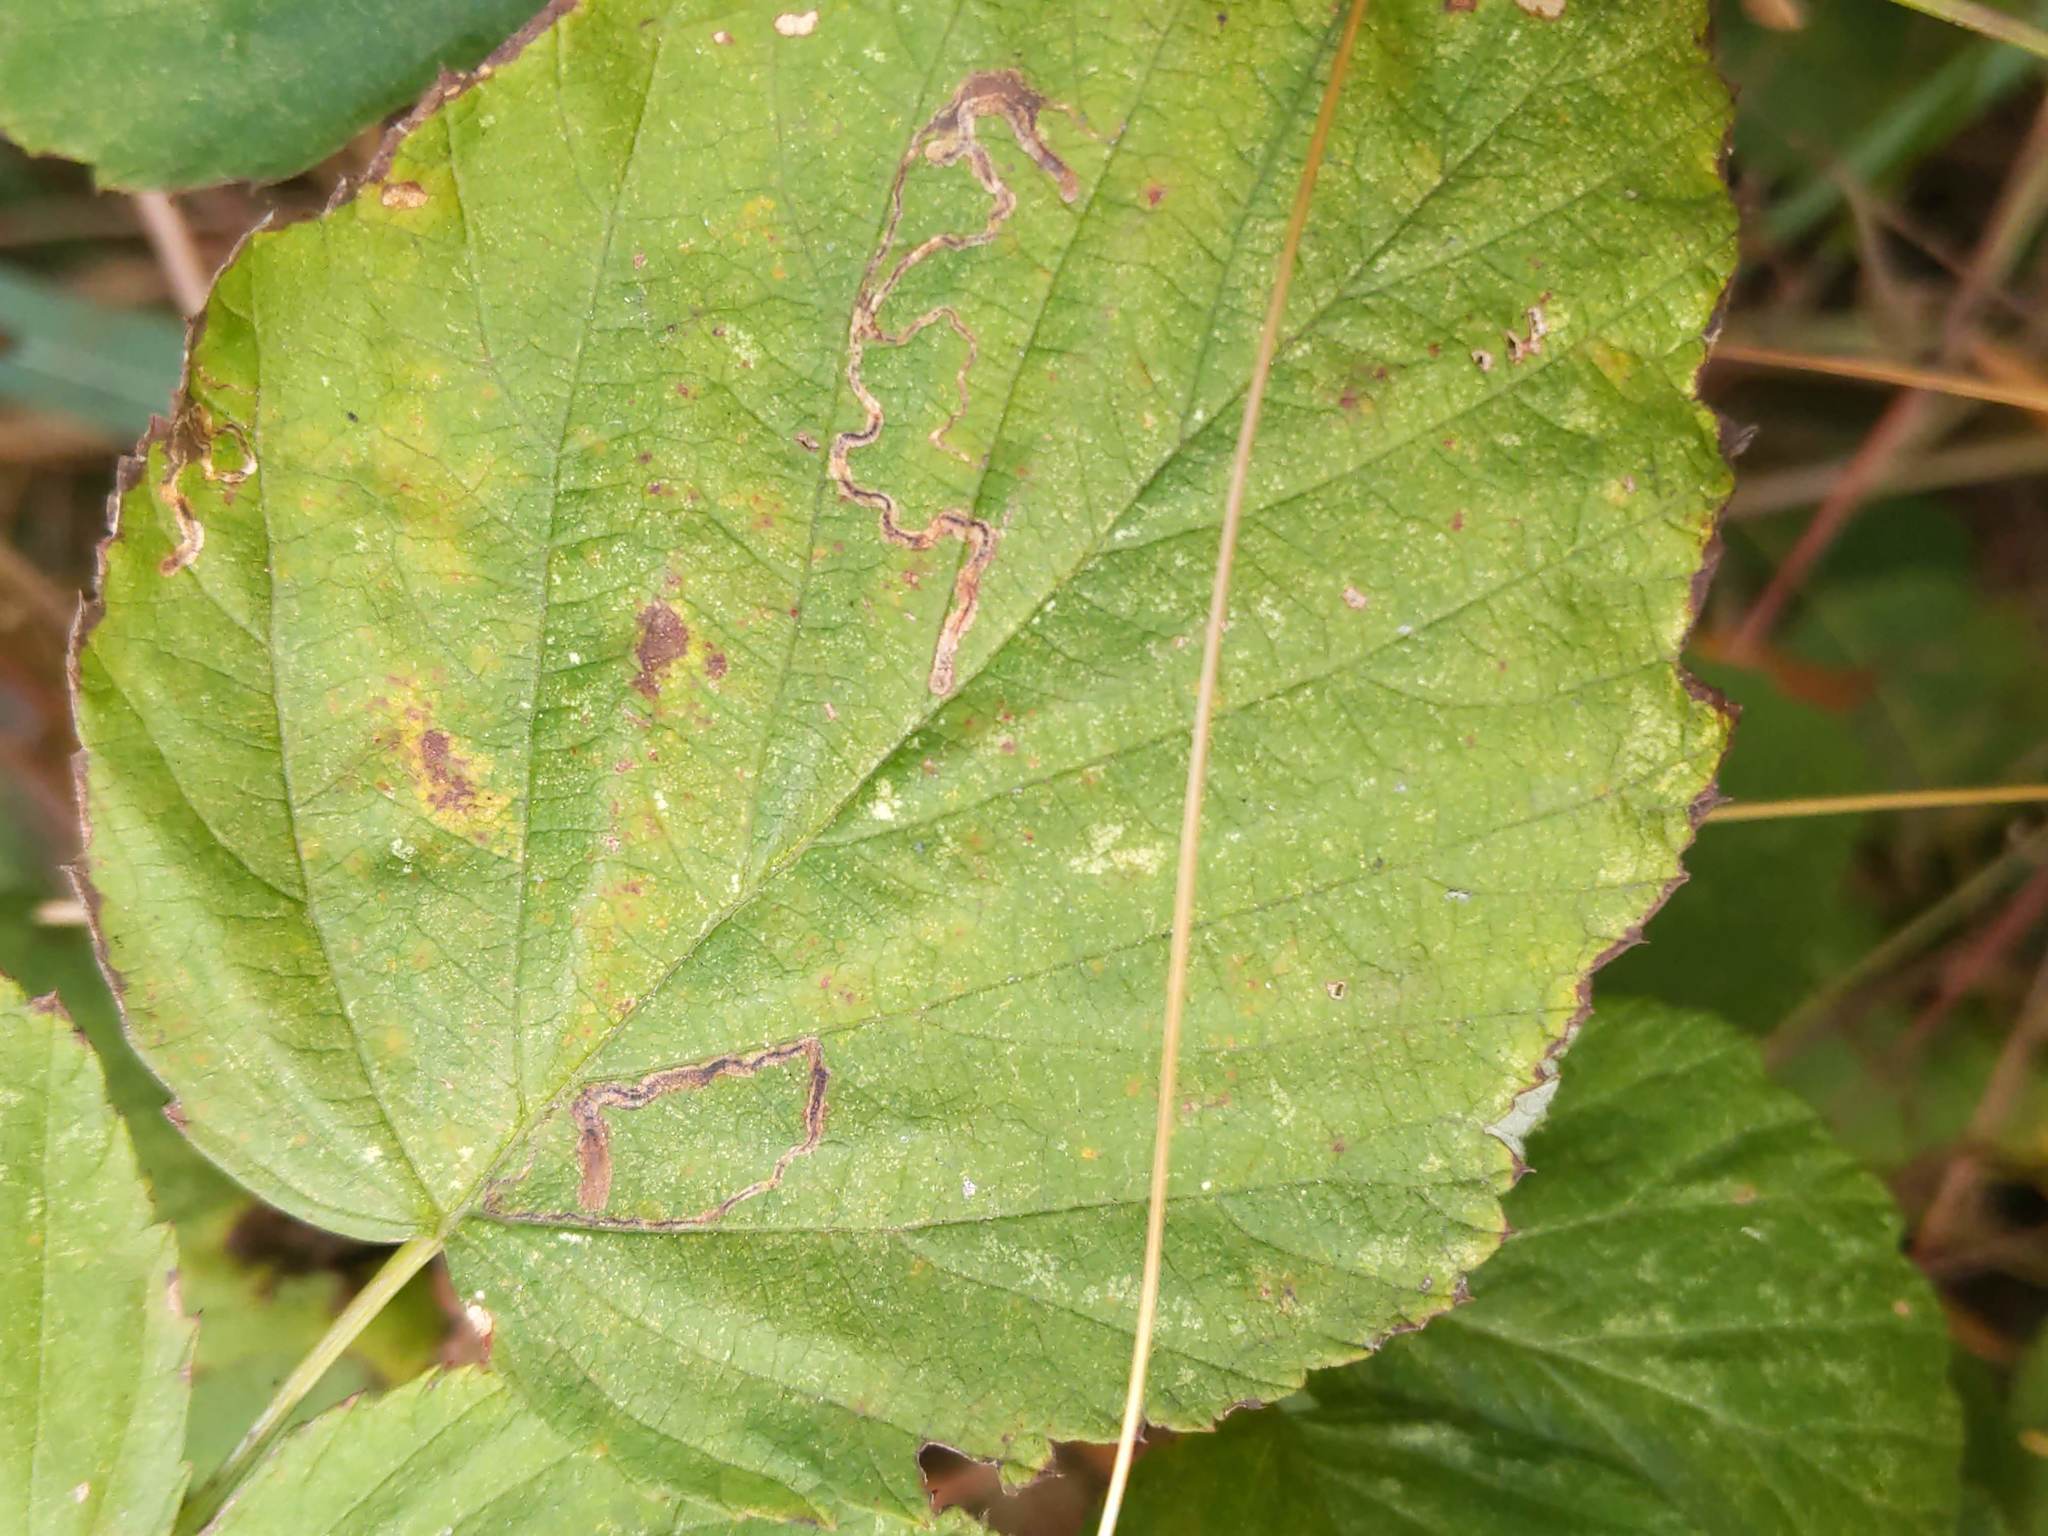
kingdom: Animalia
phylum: Arthropoda
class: Insecta
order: Lepidoptera
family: Nepticulidae
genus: Stigmella
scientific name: Stigmella villosella
